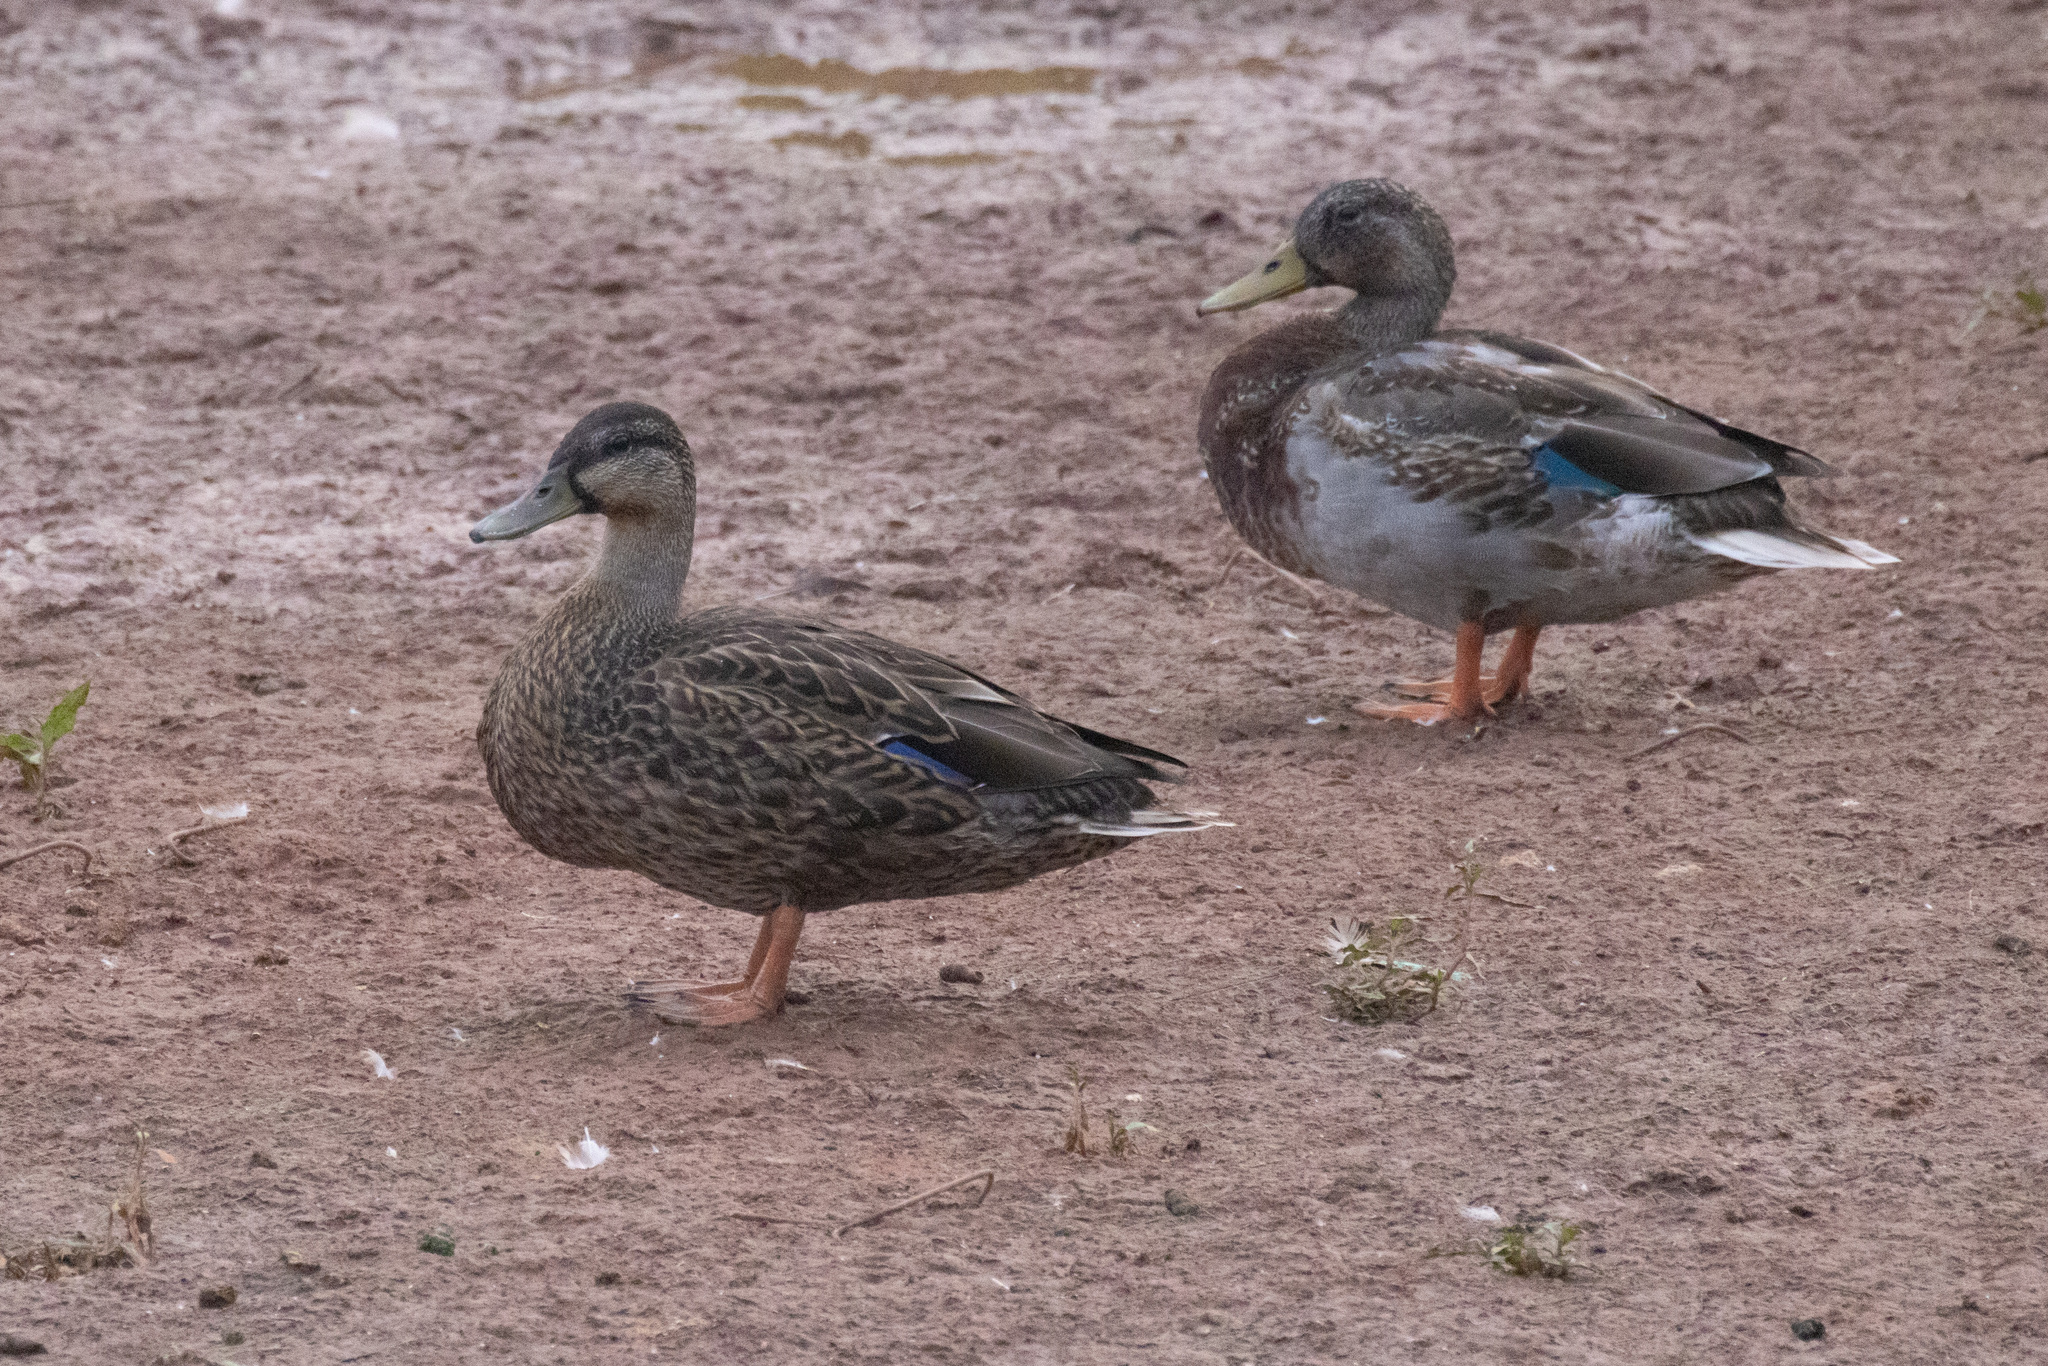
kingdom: Animalia
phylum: Chordata
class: Aves
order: Anseriformes
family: Anatidae
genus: Anas
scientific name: Anas platyrhynchos
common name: Mallard
